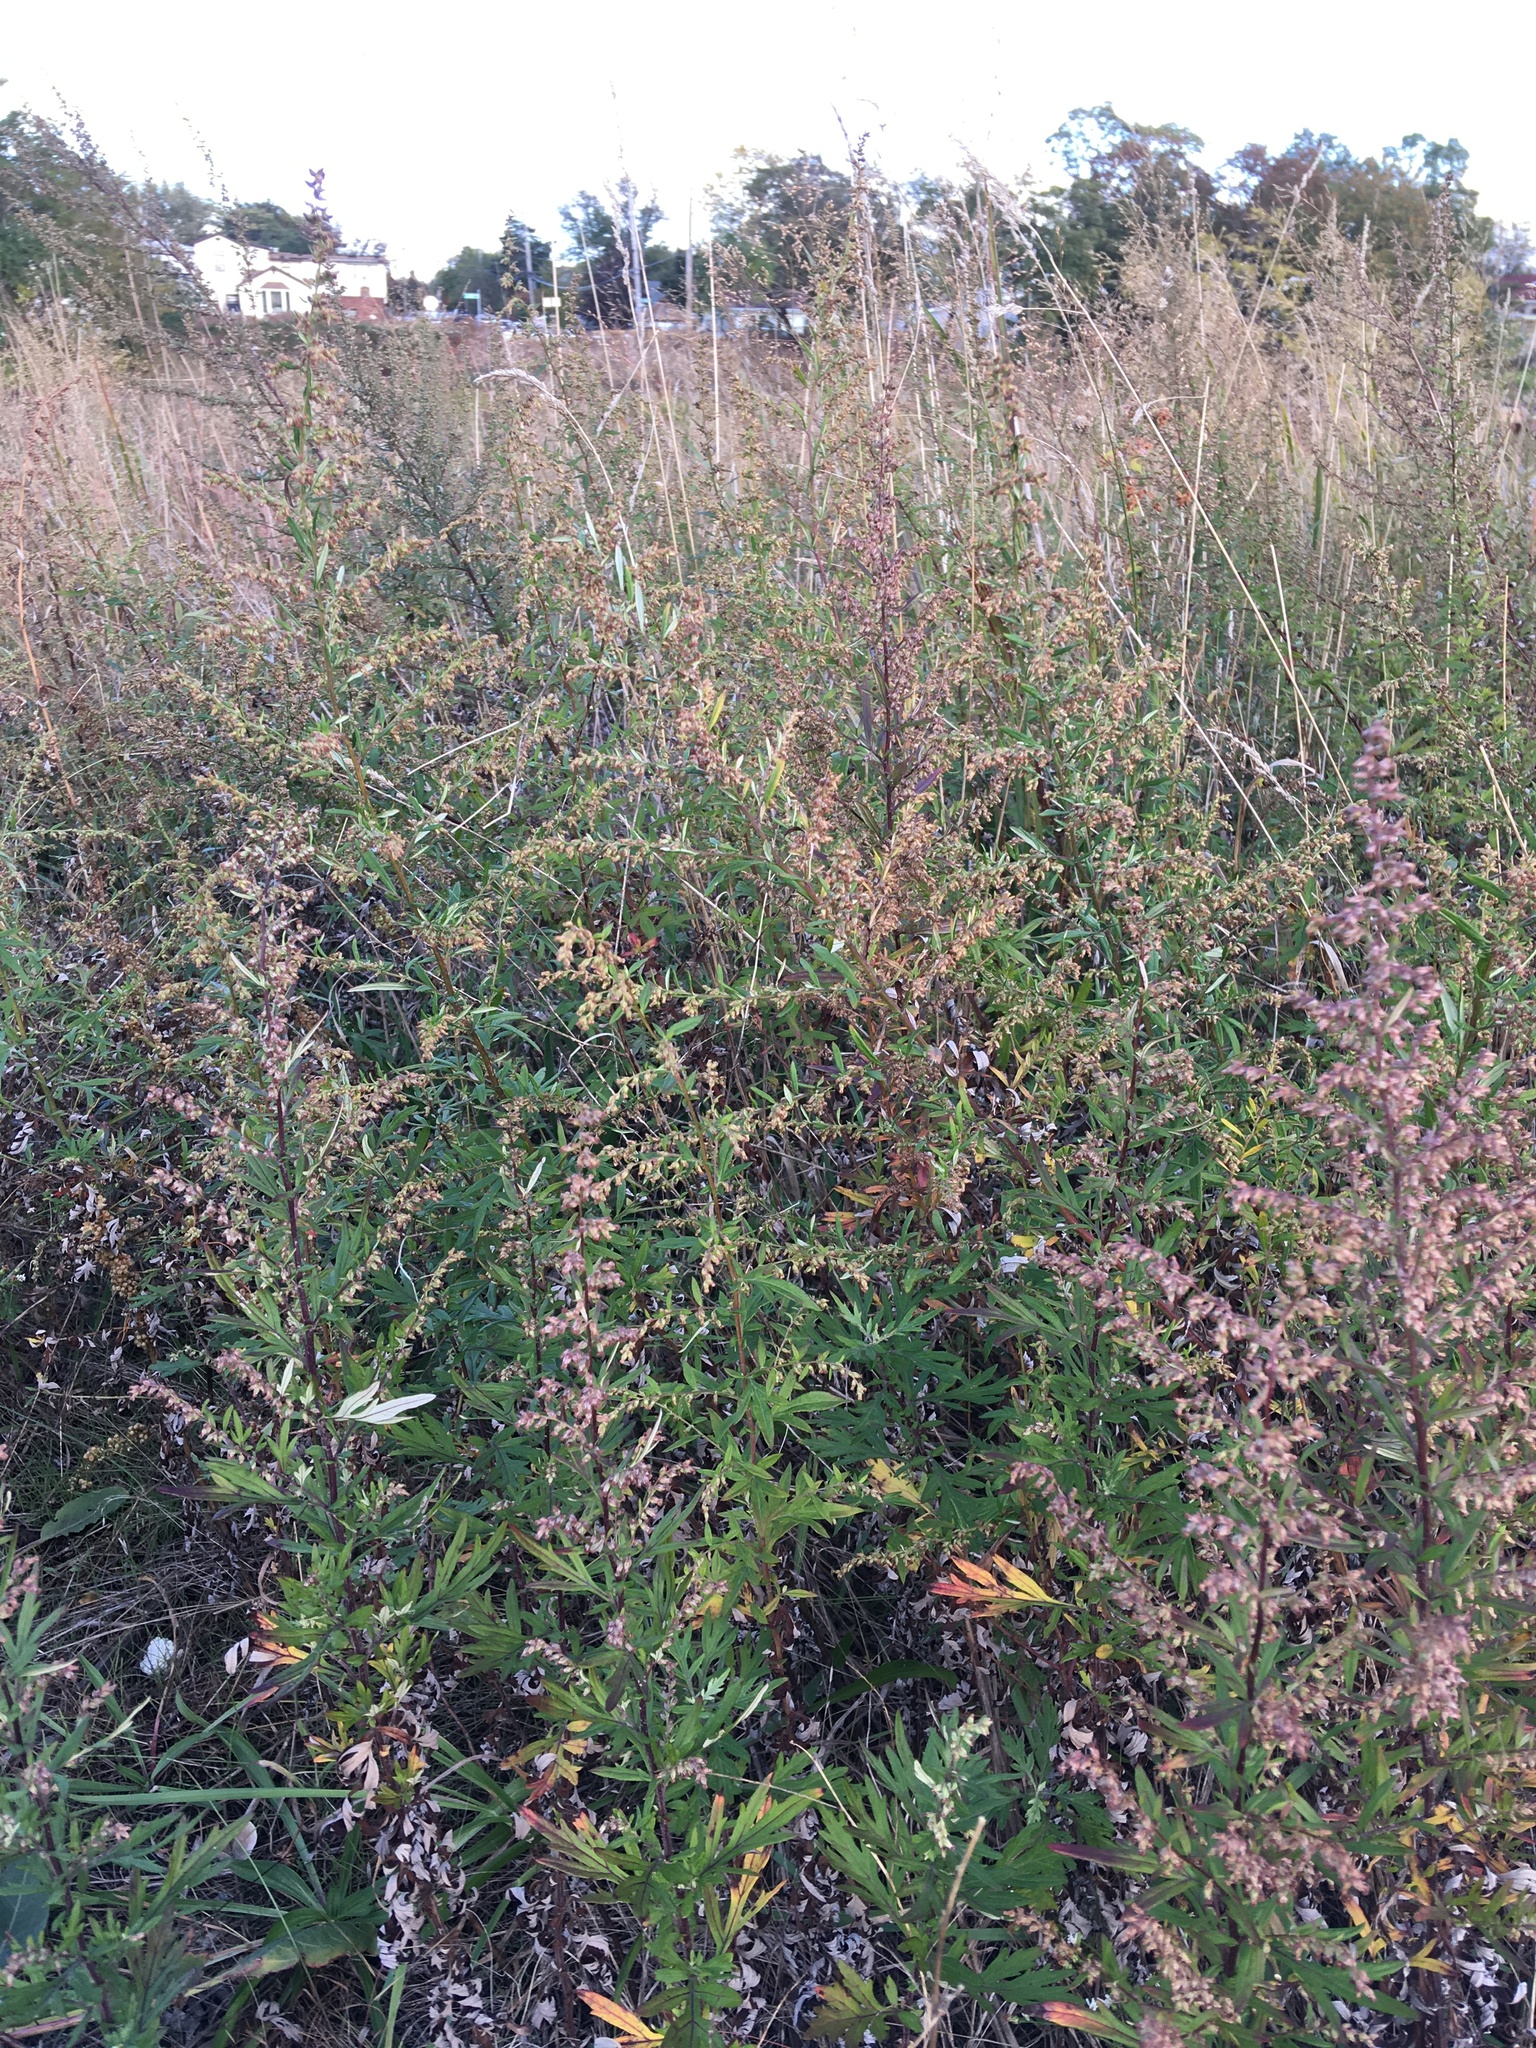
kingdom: Plantae
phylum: Tracheophyta
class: Magnoliopsida
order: Asterales
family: Asteraceae
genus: Artemisia
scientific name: Artemisia vulgaris
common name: Mugwort
